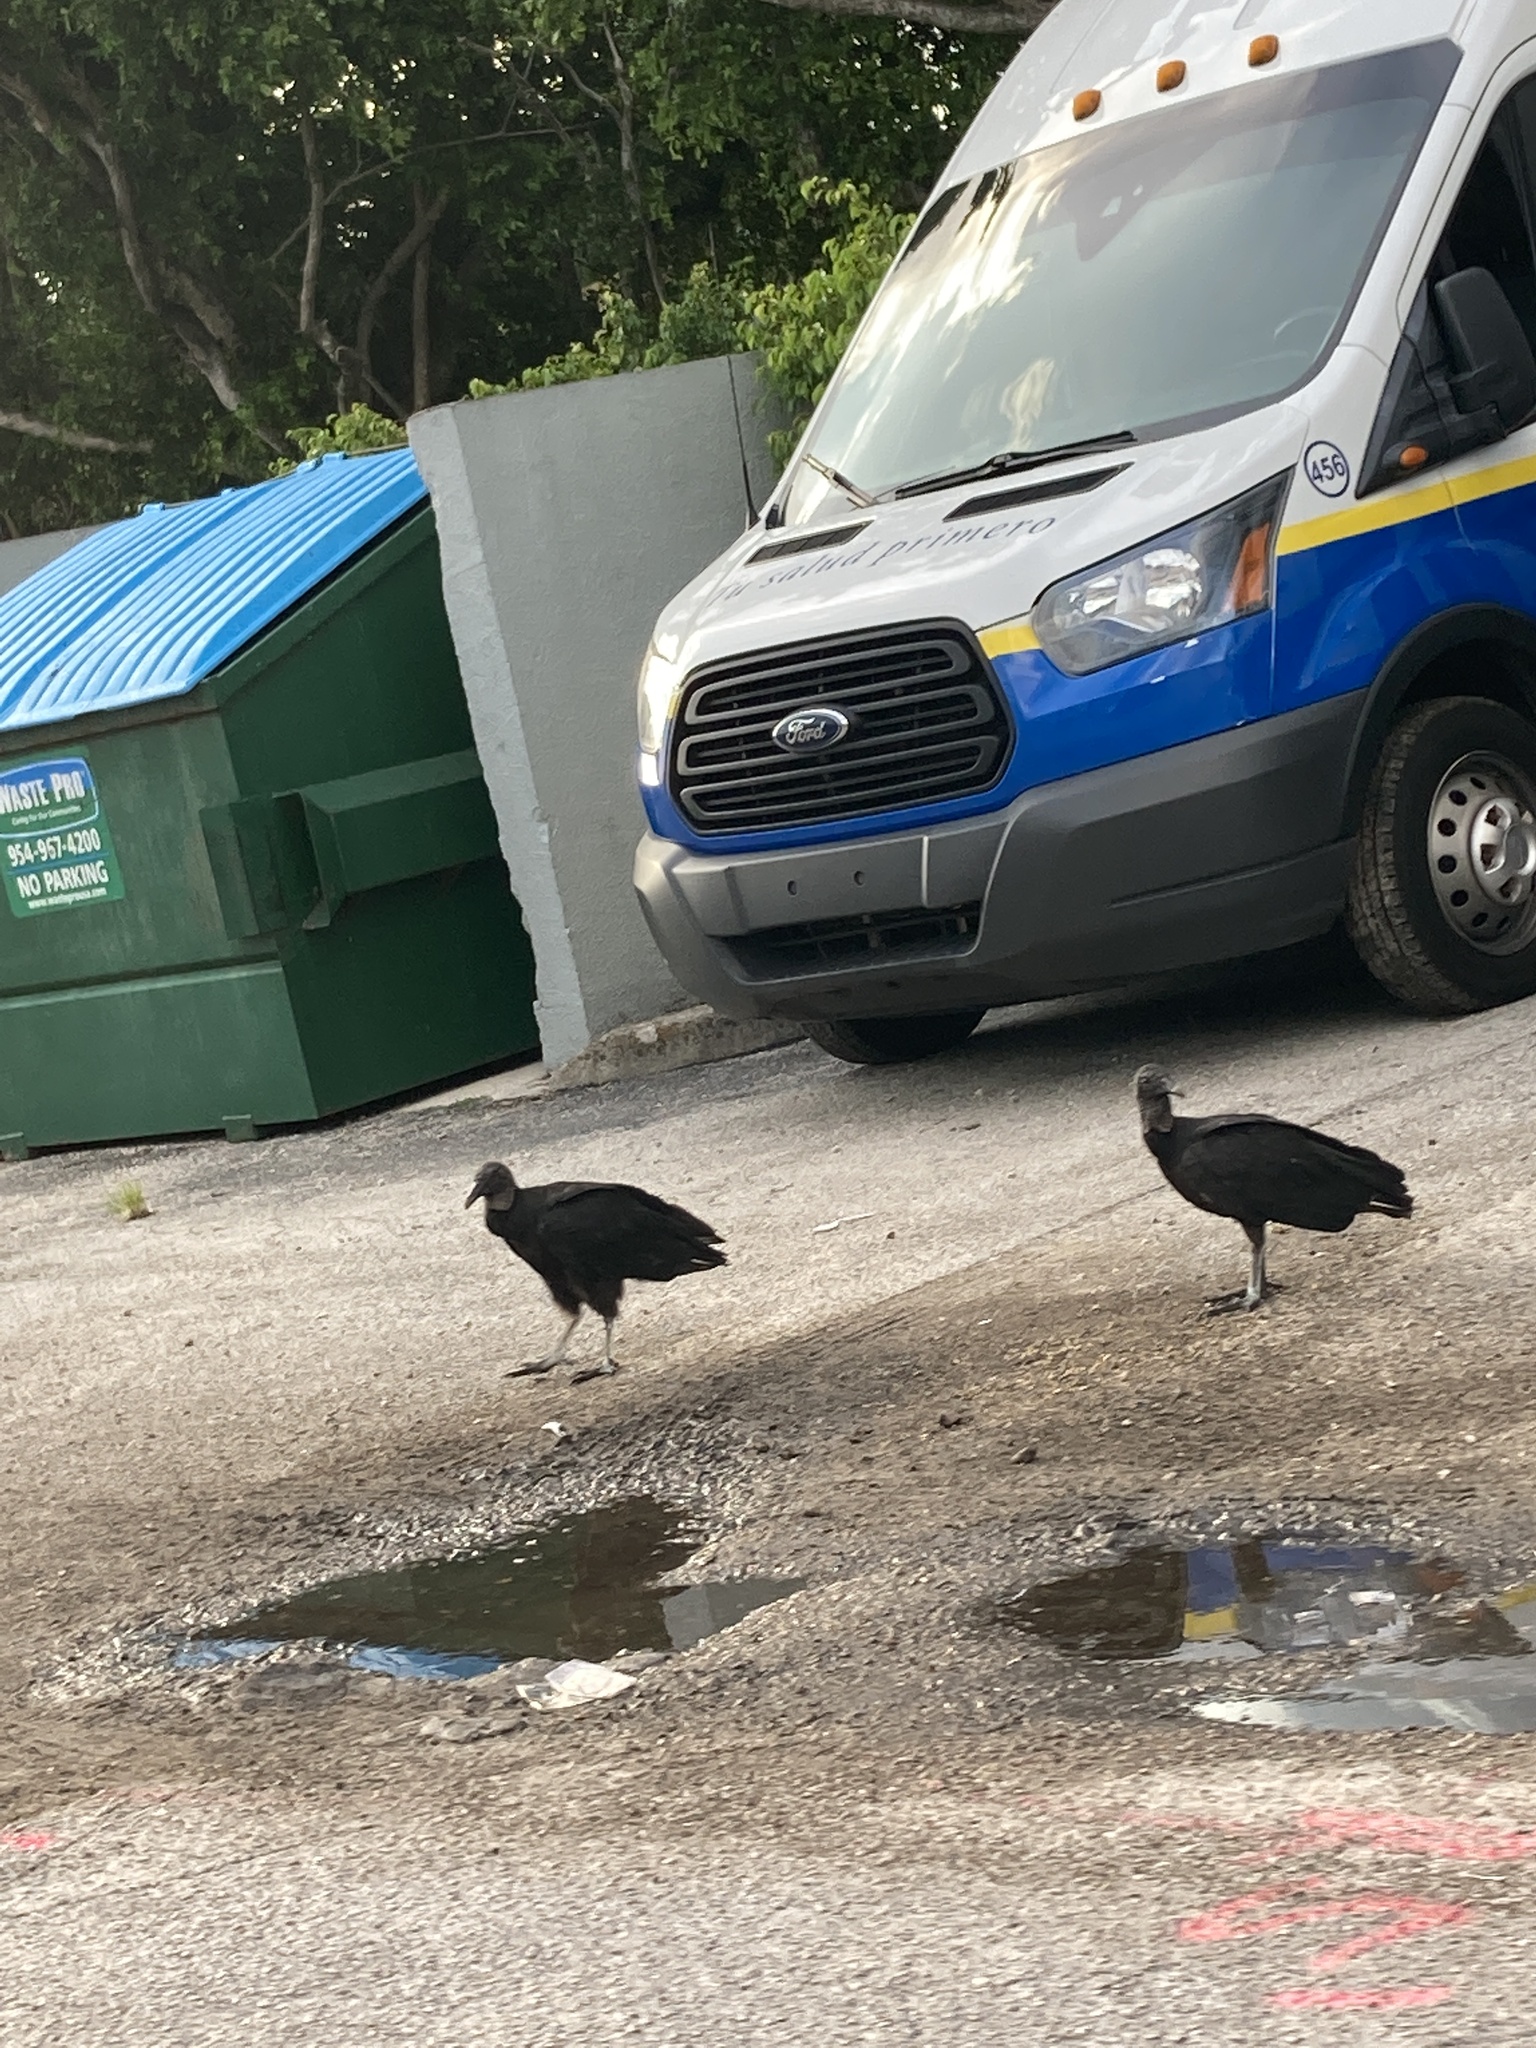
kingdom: Animalia
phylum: Chordata
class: Aves
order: Accipitriformes
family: Cathartidae
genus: Coragyps
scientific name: Coragyps atratus
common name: Black vulture
